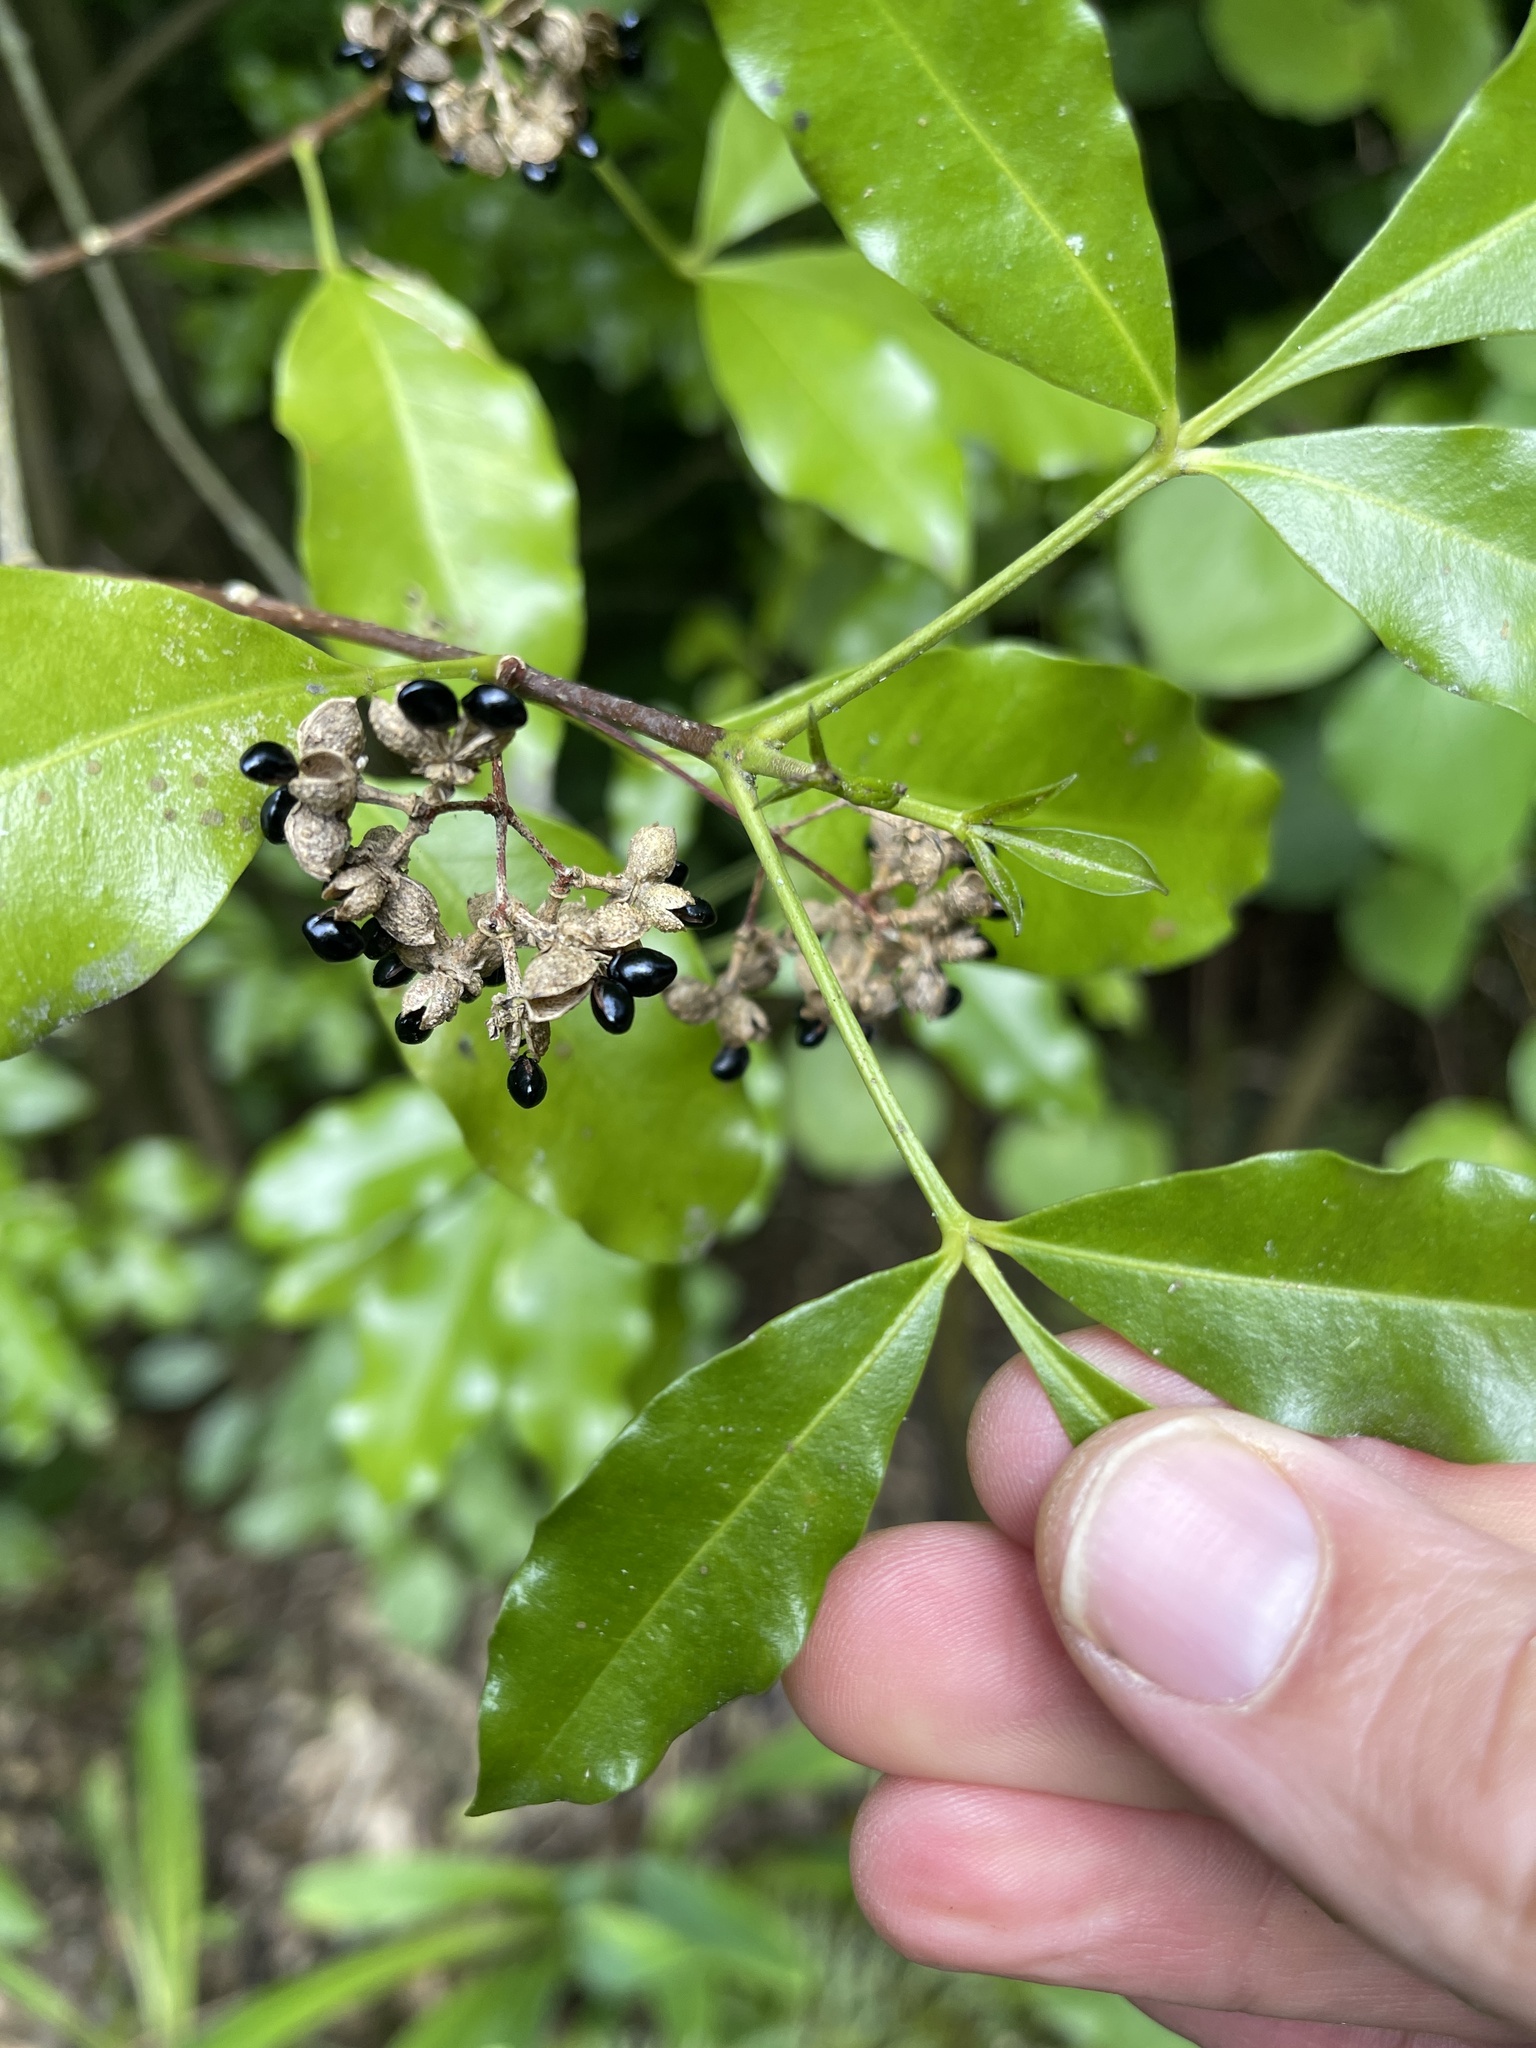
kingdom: Plantae
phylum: Tracheophyta
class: Magnoliopsida
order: Sapindales
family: Rutaceae
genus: Melicope
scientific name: Melicope ternata
